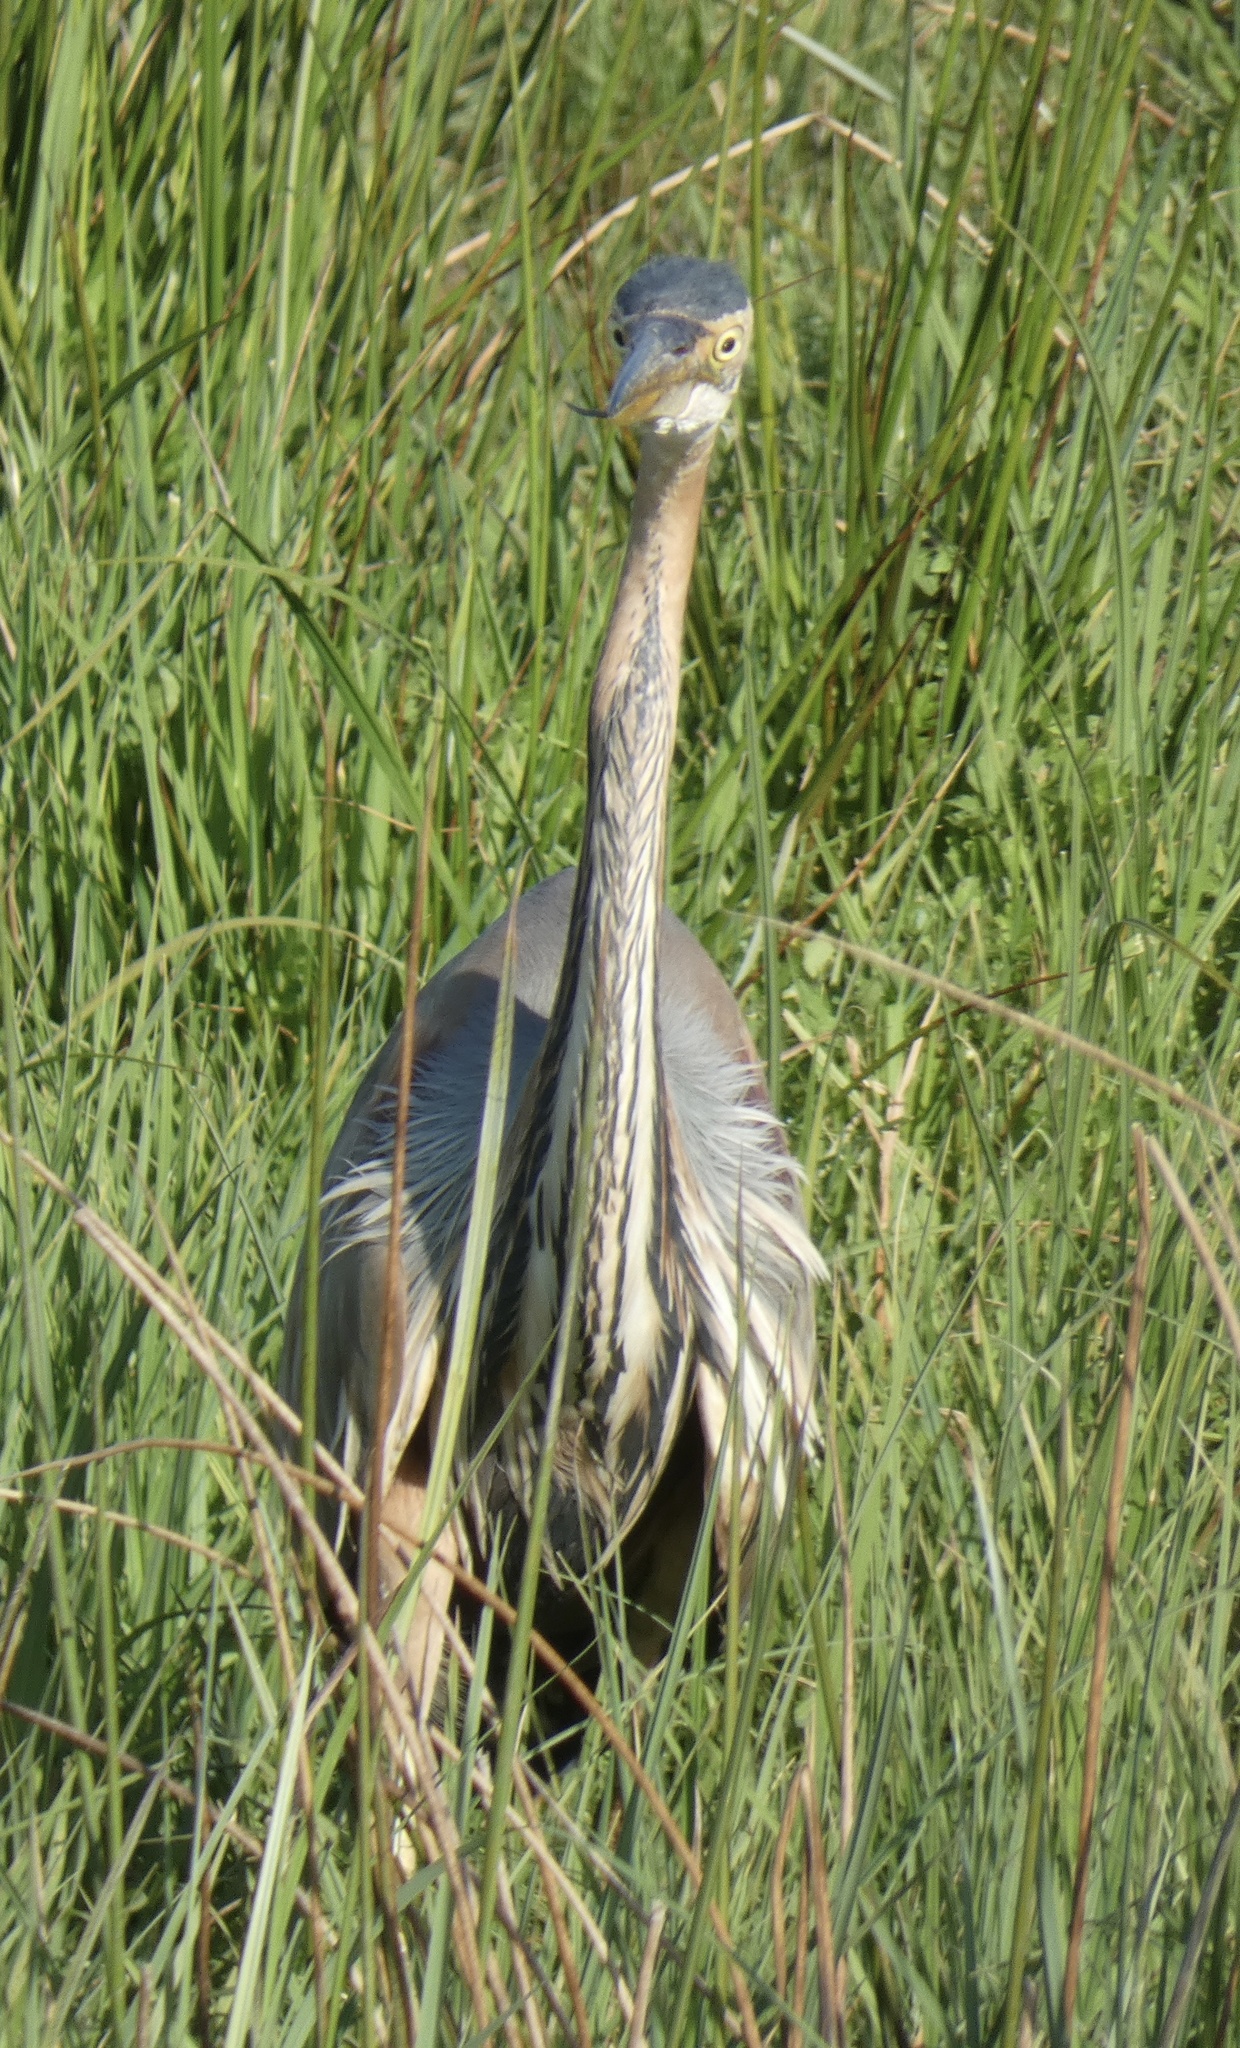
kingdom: Animalia
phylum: Chordata
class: Aves
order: Pelecaniformes
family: Ardeidae
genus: Ardea
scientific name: Ardea purpurea
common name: Purple heron
